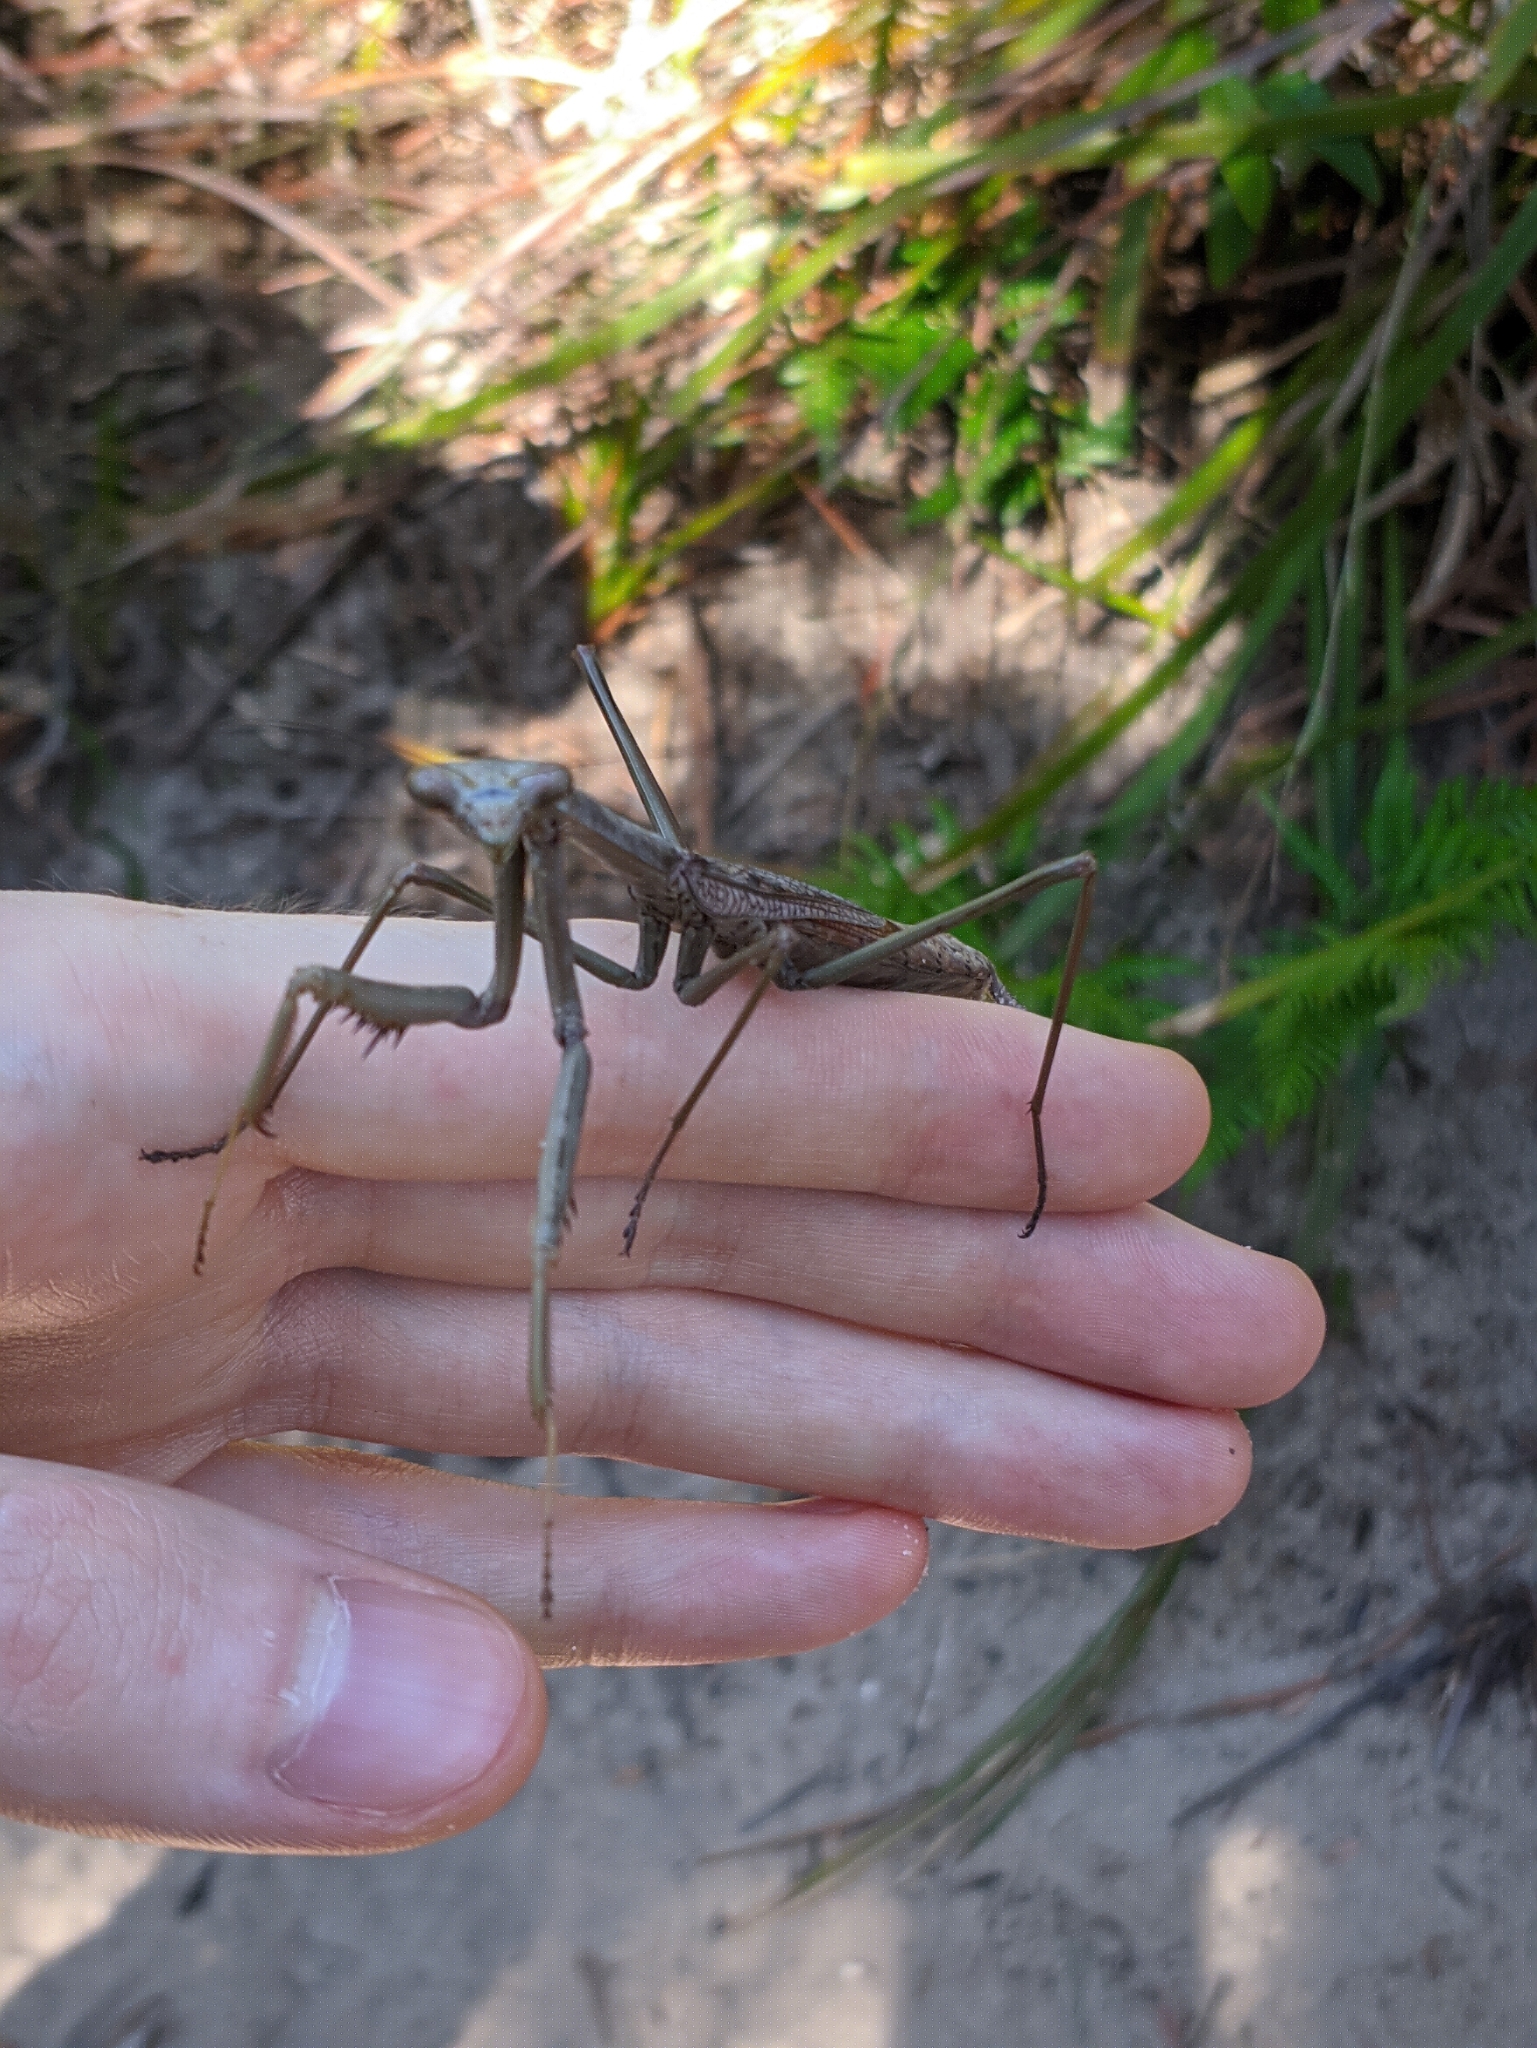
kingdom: Animalia
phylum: Arthropoda
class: Insecta
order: Mantodea
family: Mantidae
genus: Archimantis
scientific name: Archimantis latistyla
